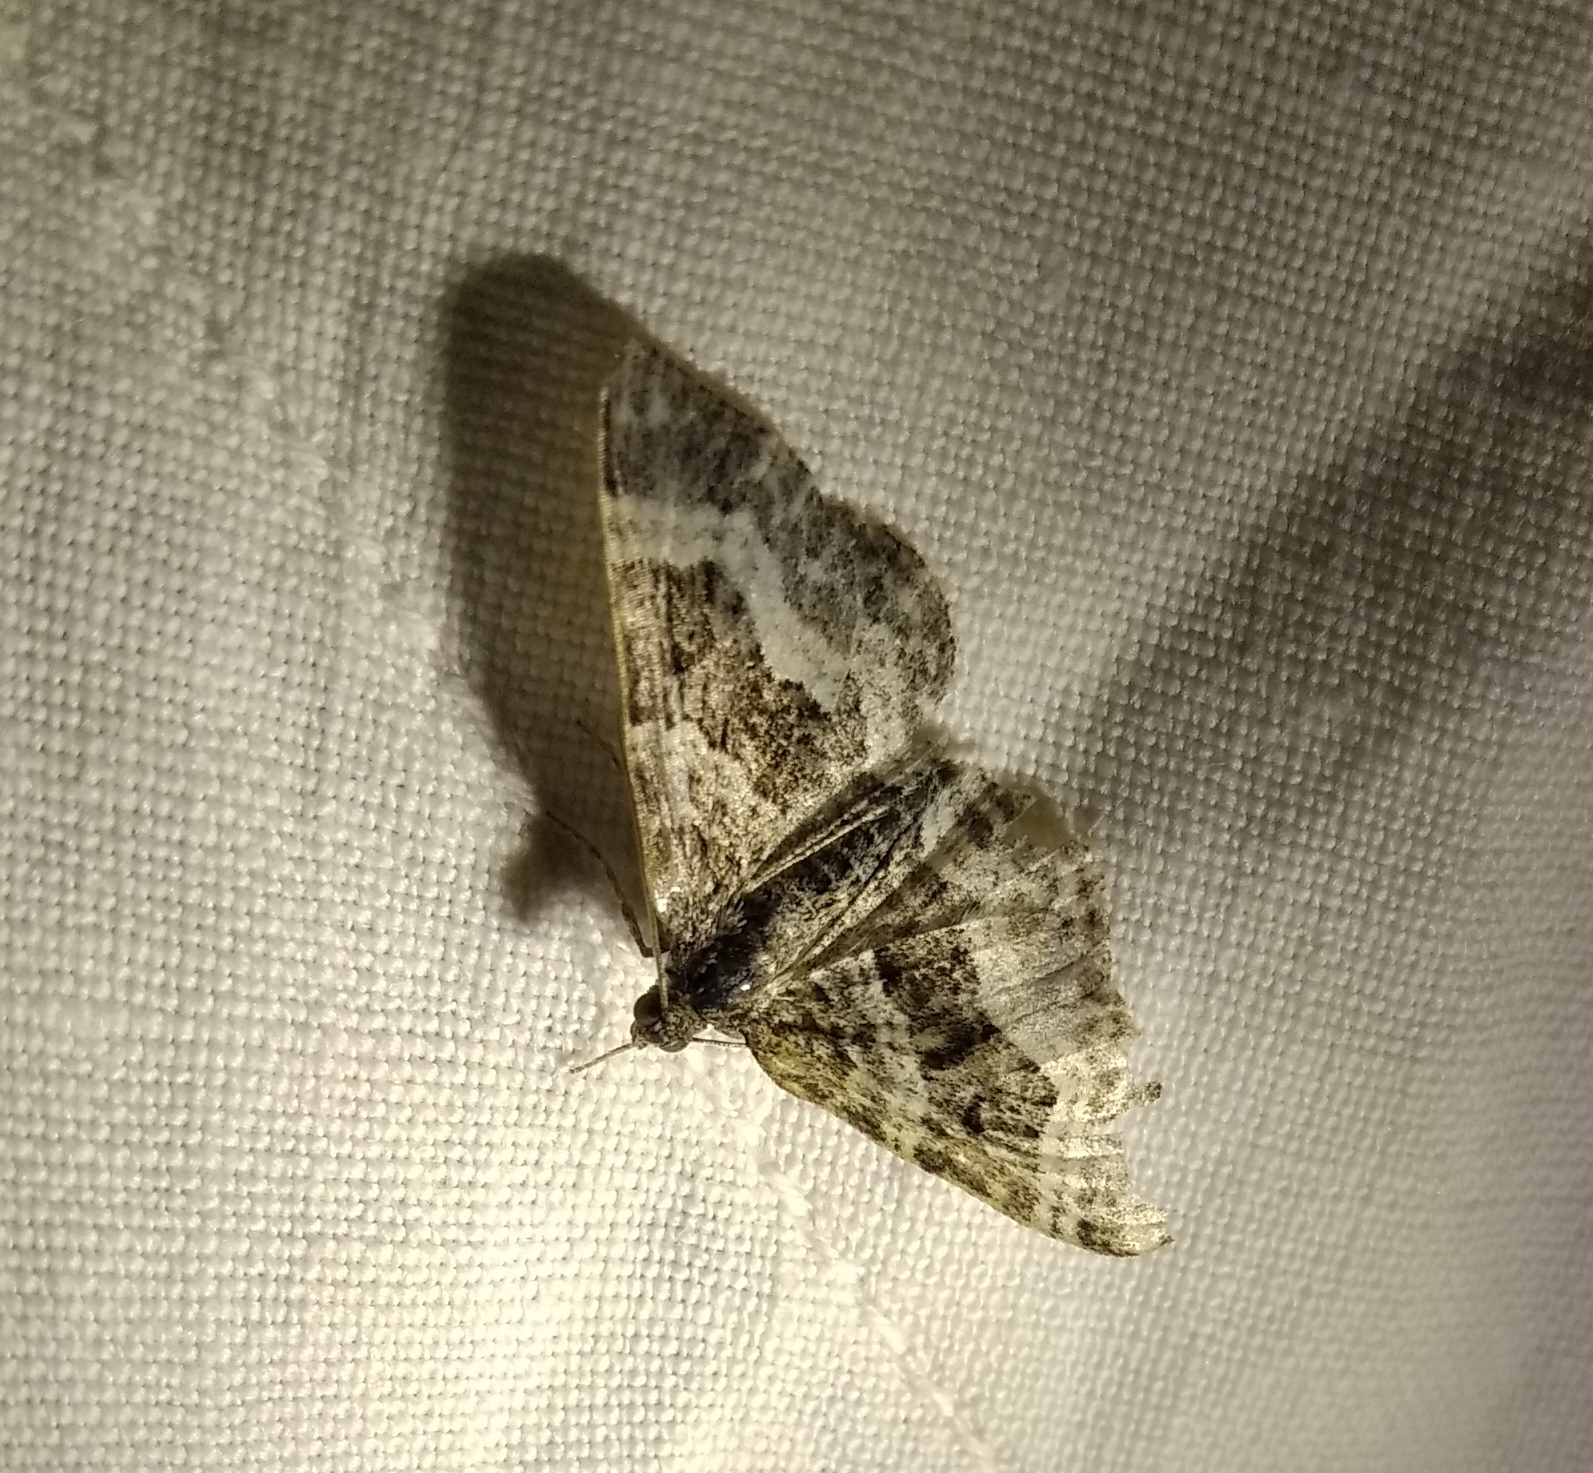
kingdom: Animalia
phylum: Arthropoda
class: Insecta
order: Lepidoptera
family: Geometridae
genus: Epirrhoe
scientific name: Epirrhoe alternata
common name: Common carpet
